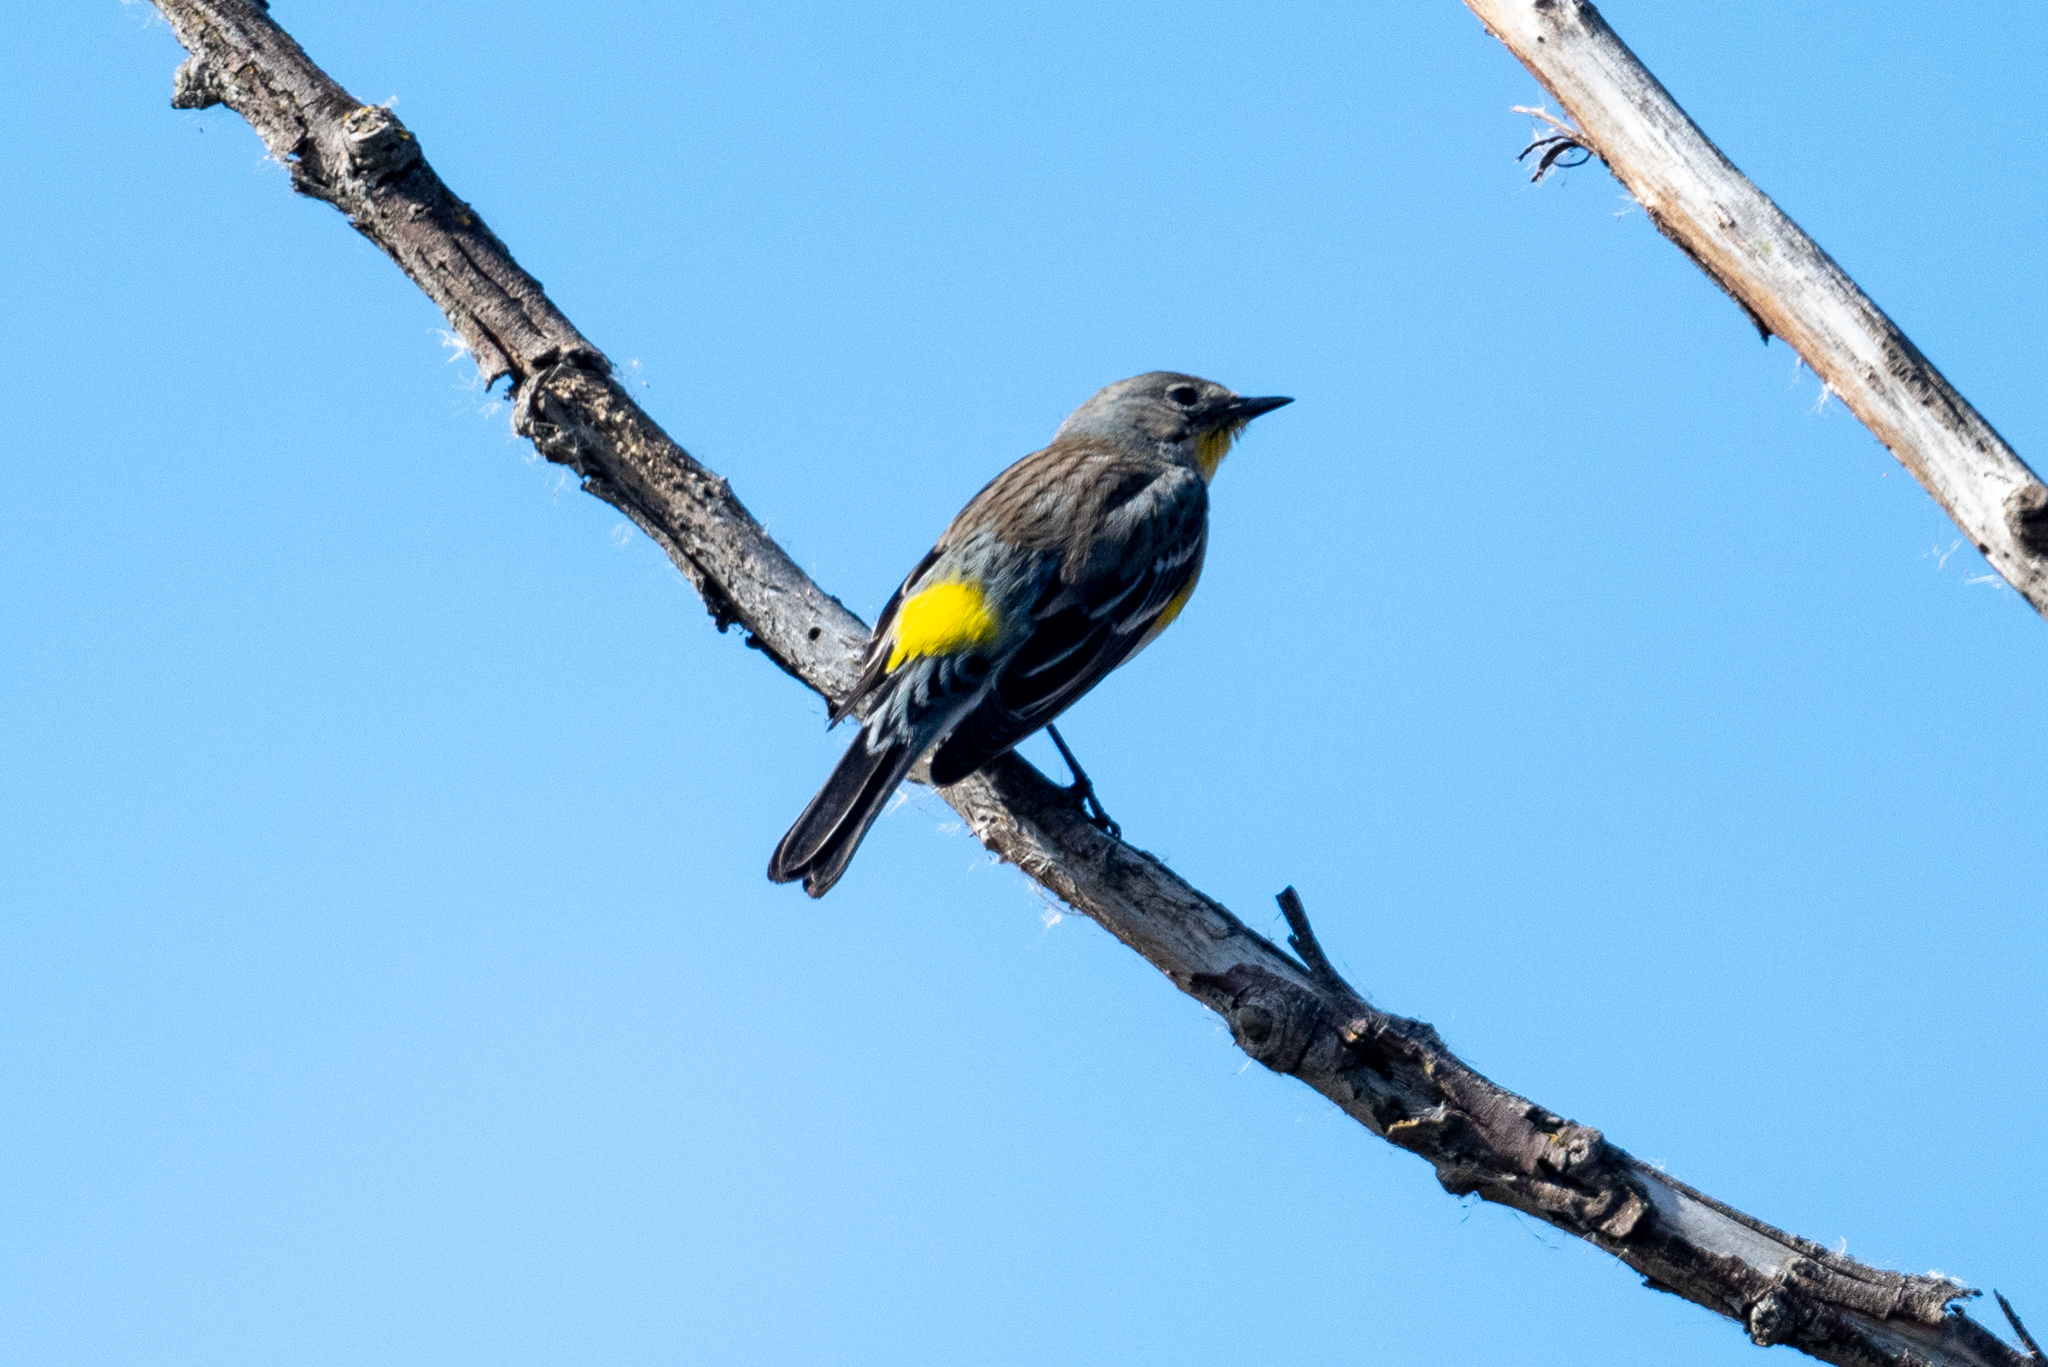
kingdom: Animalia
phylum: Chordata
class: Aves
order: Passeriformes
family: Parulidae
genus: Setophaga
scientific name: Setophaga coronata
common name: Myrtle warbler
